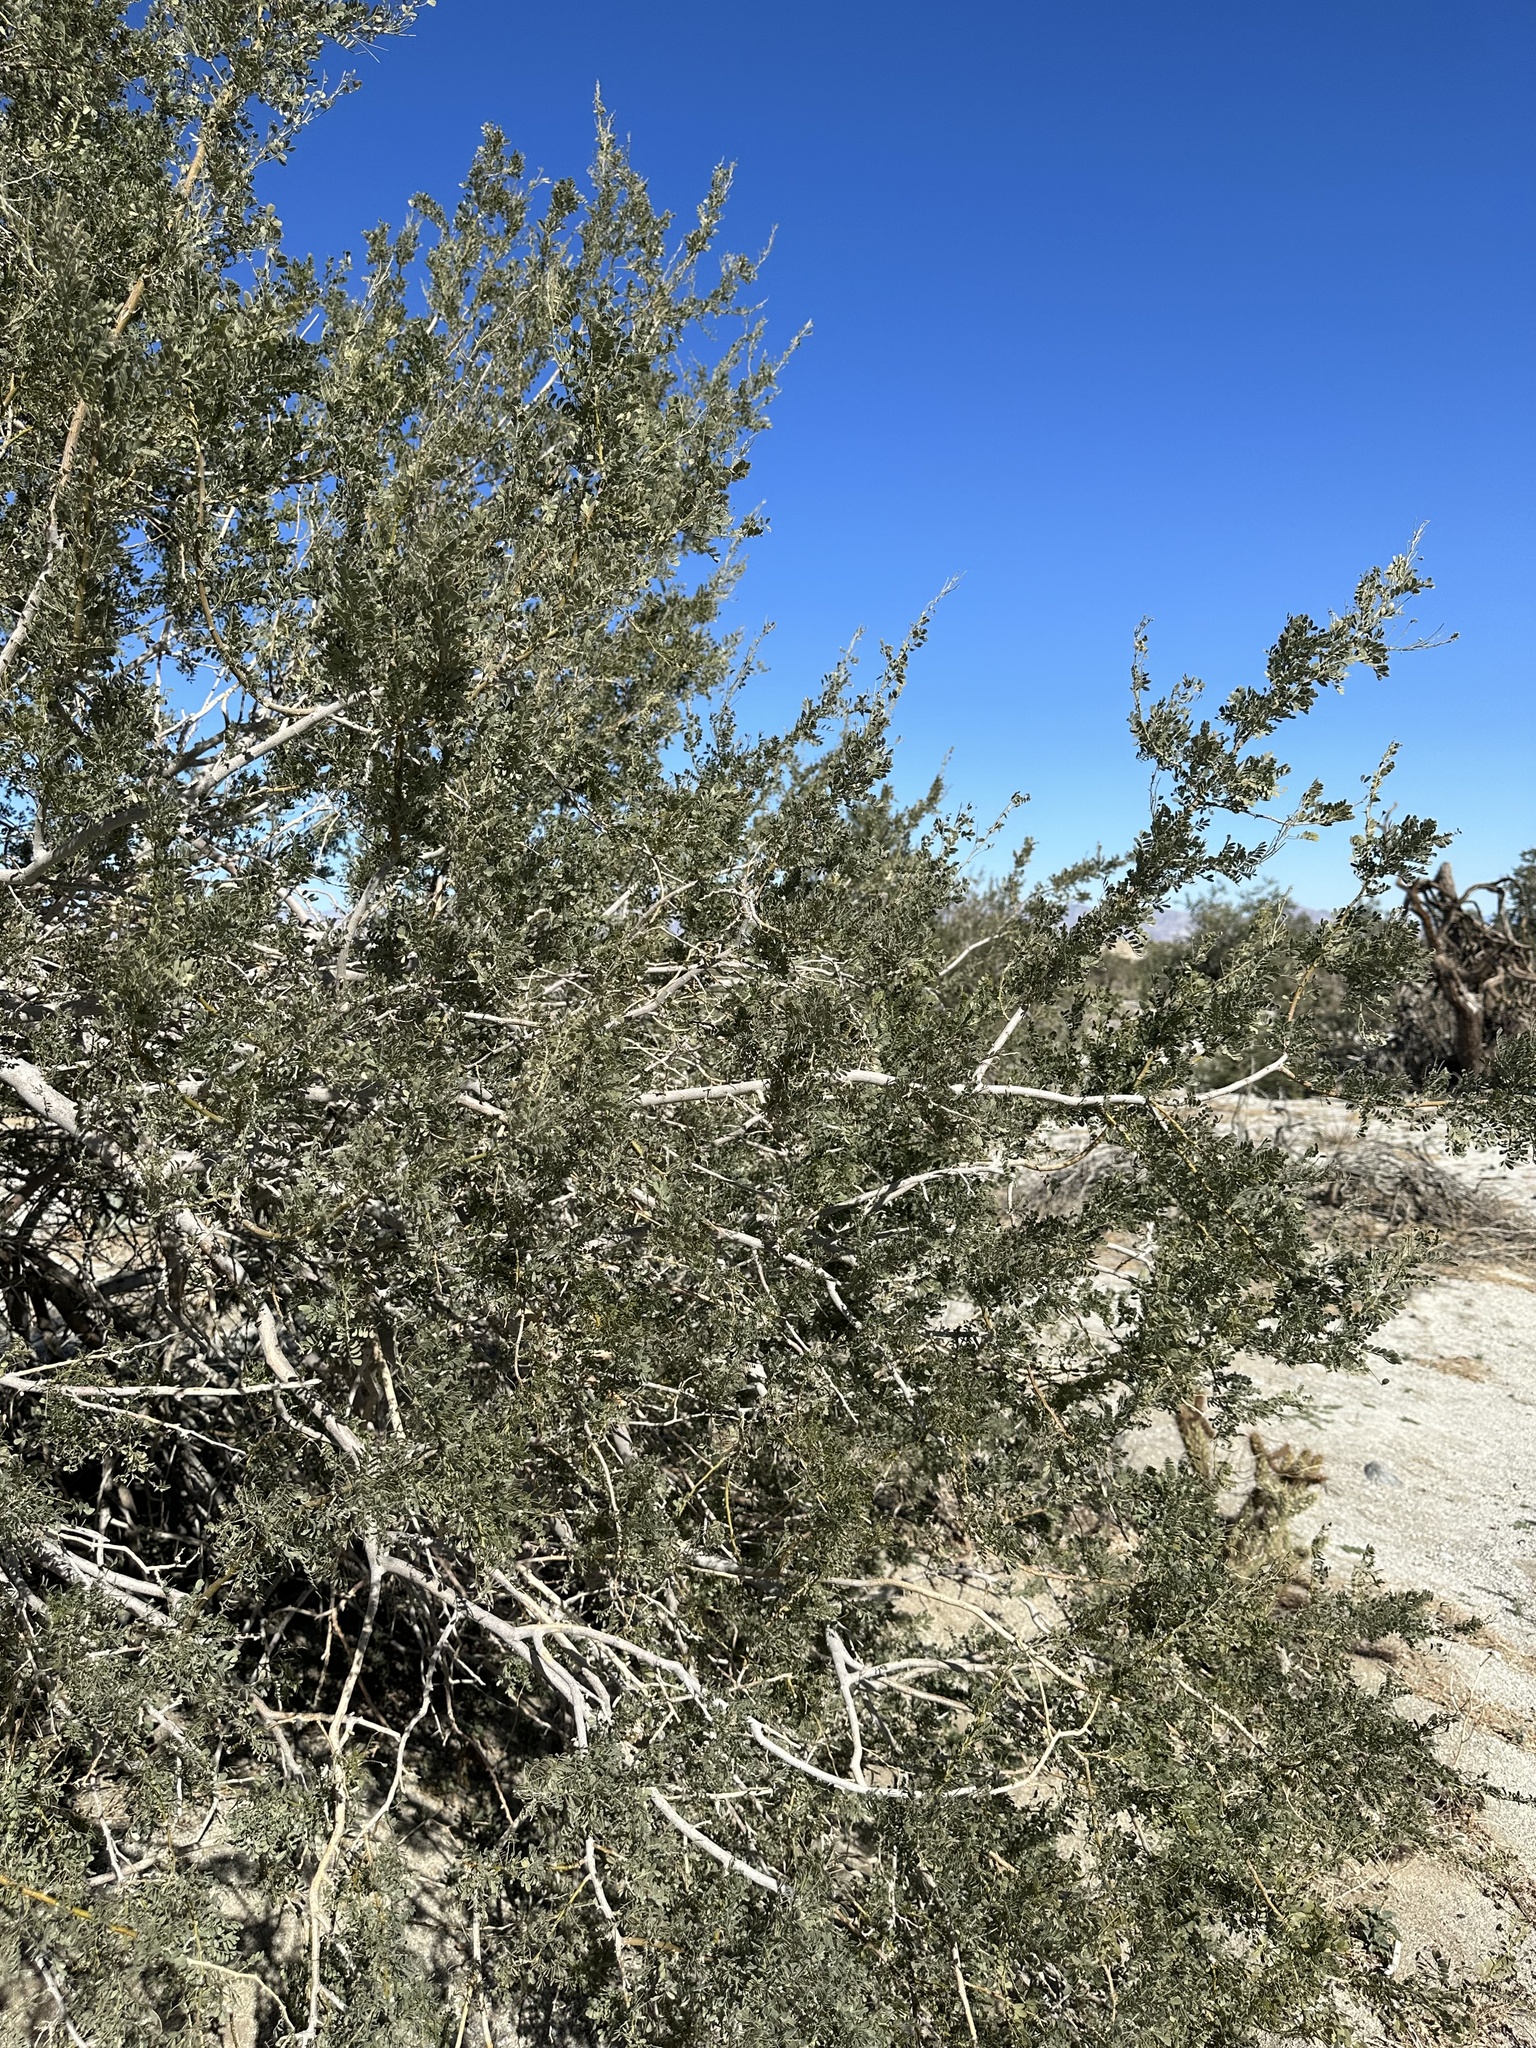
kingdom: Plantae
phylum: Tracheophyta
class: Magnoliopsida
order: Fabales
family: Fabaceae
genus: Olneya
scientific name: Olneya tesota
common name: Desert ironwood
